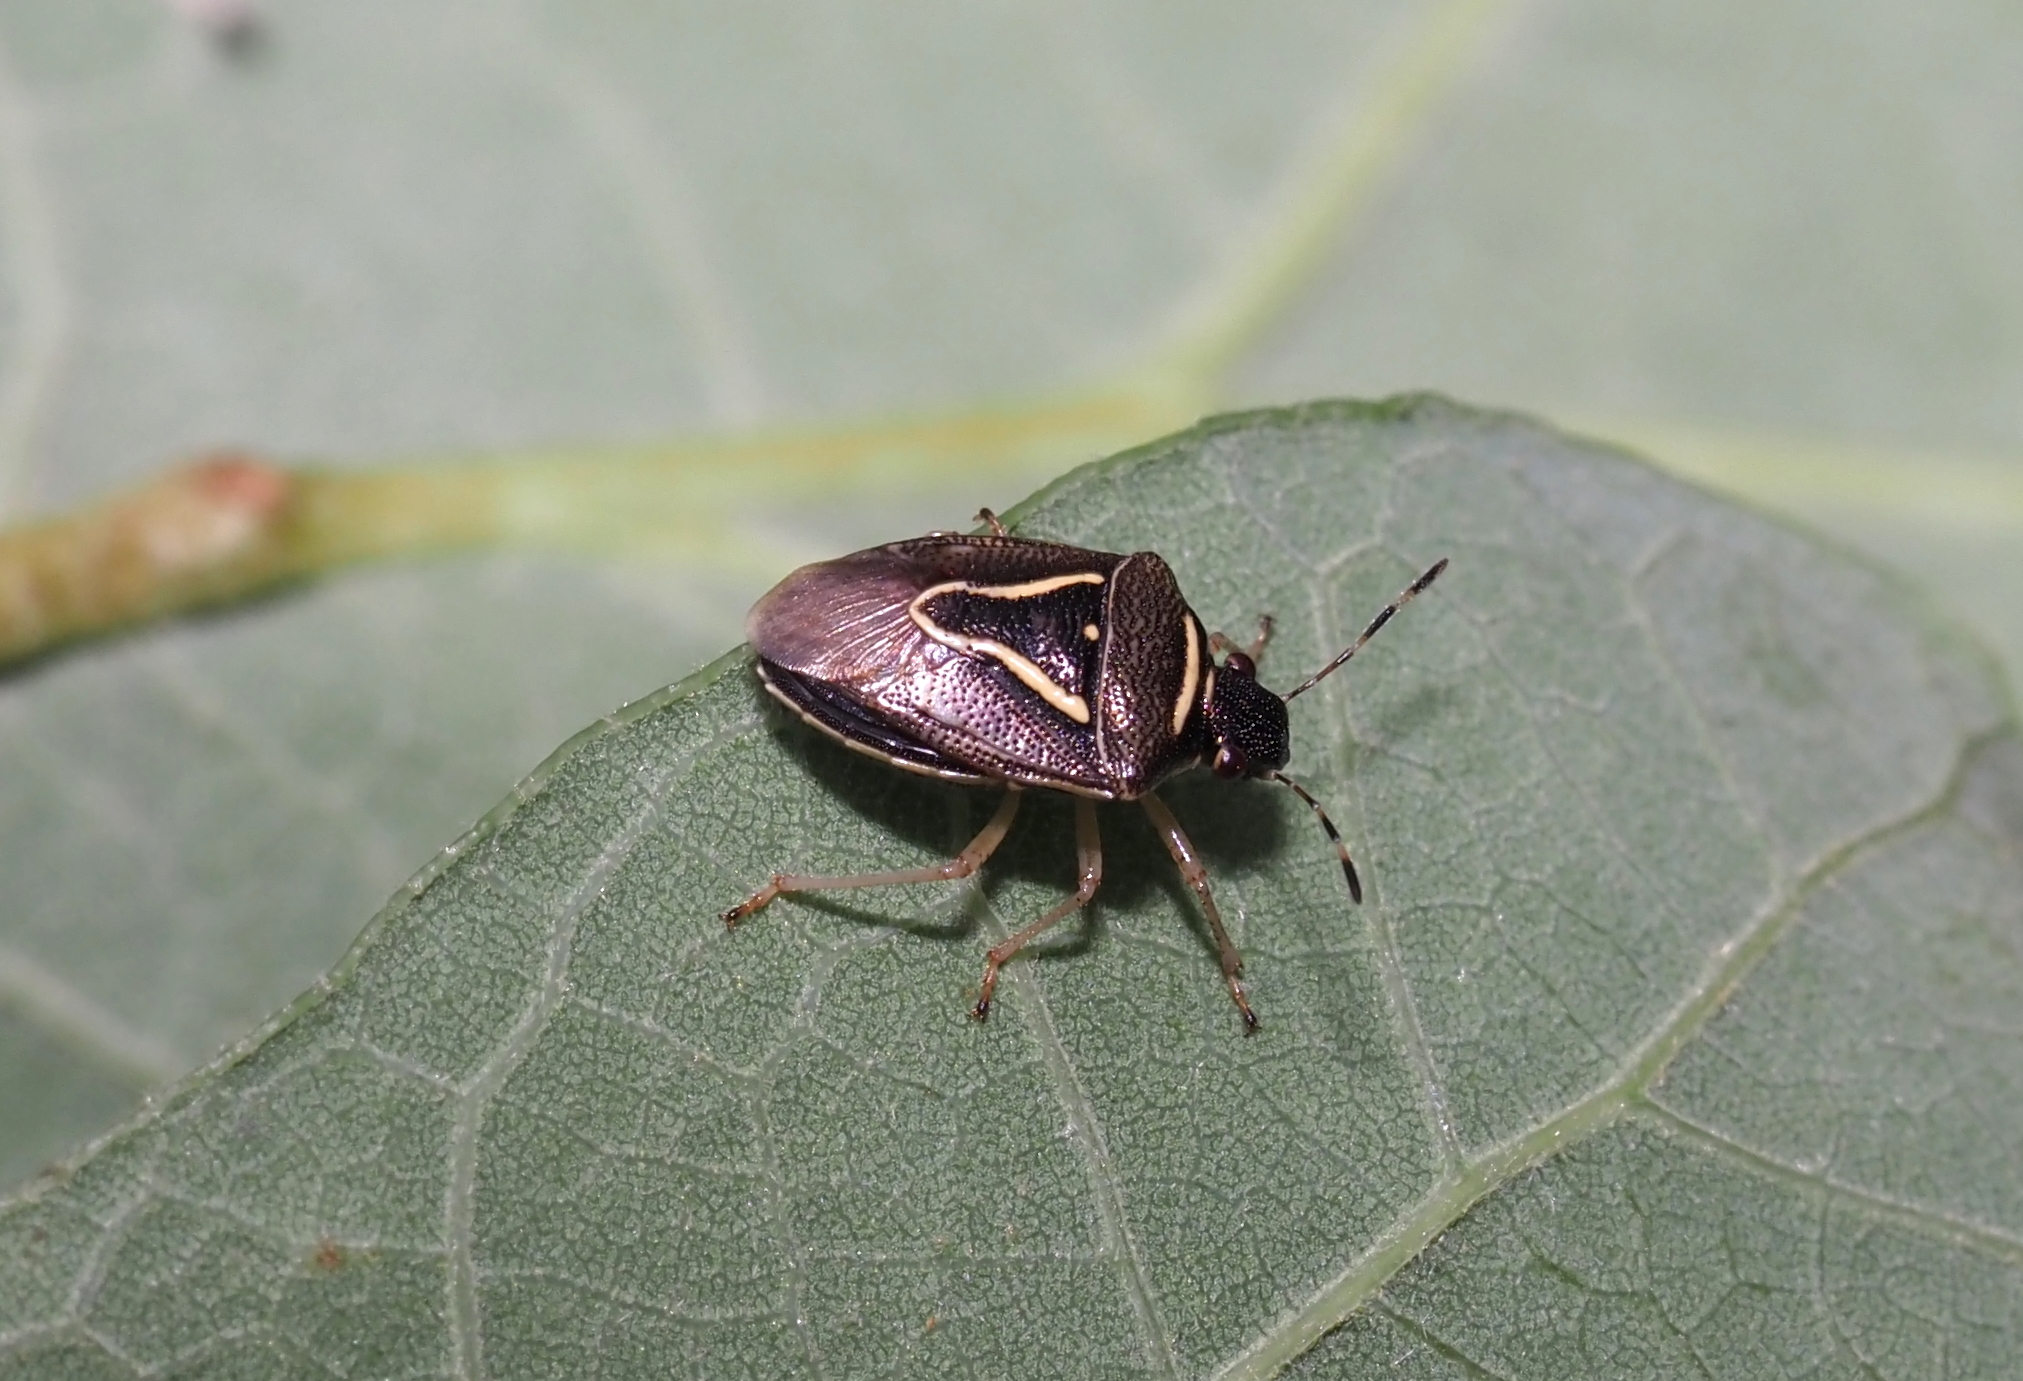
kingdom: Animalia
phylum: Arthropoda
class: Insecta
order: Hemiptera
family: Pentatomidae
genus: Mormidea
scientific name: Mormidea lugens
